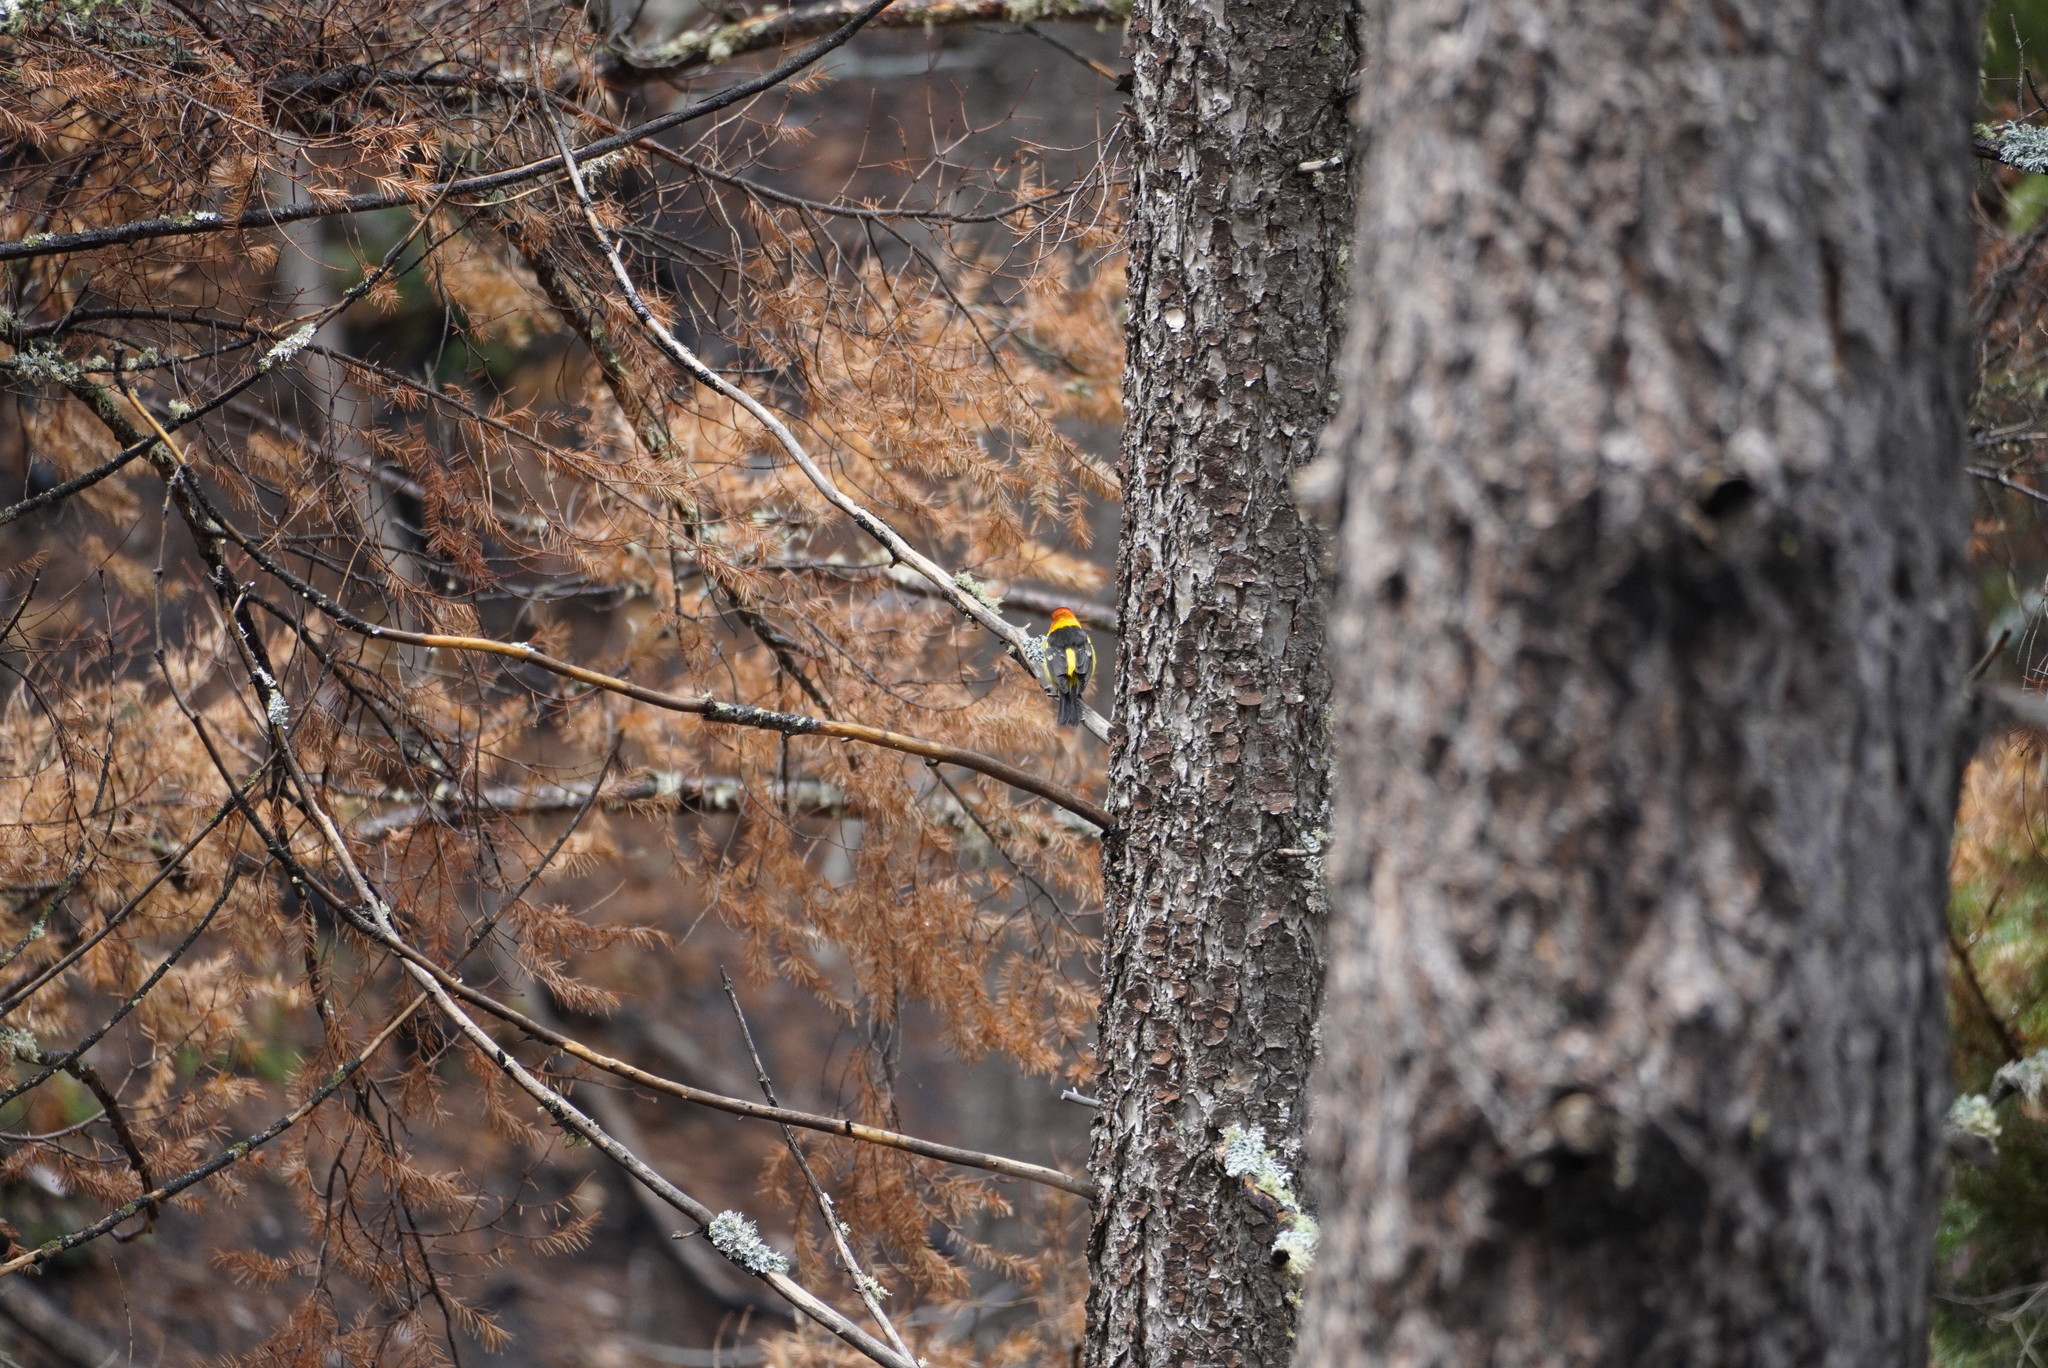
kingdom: Animalia
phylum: Chordata
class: Aves
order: Passeriformes
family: Cardinalidae
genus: Piranga
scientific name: Piranga ludoviciana
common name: Western tanager
